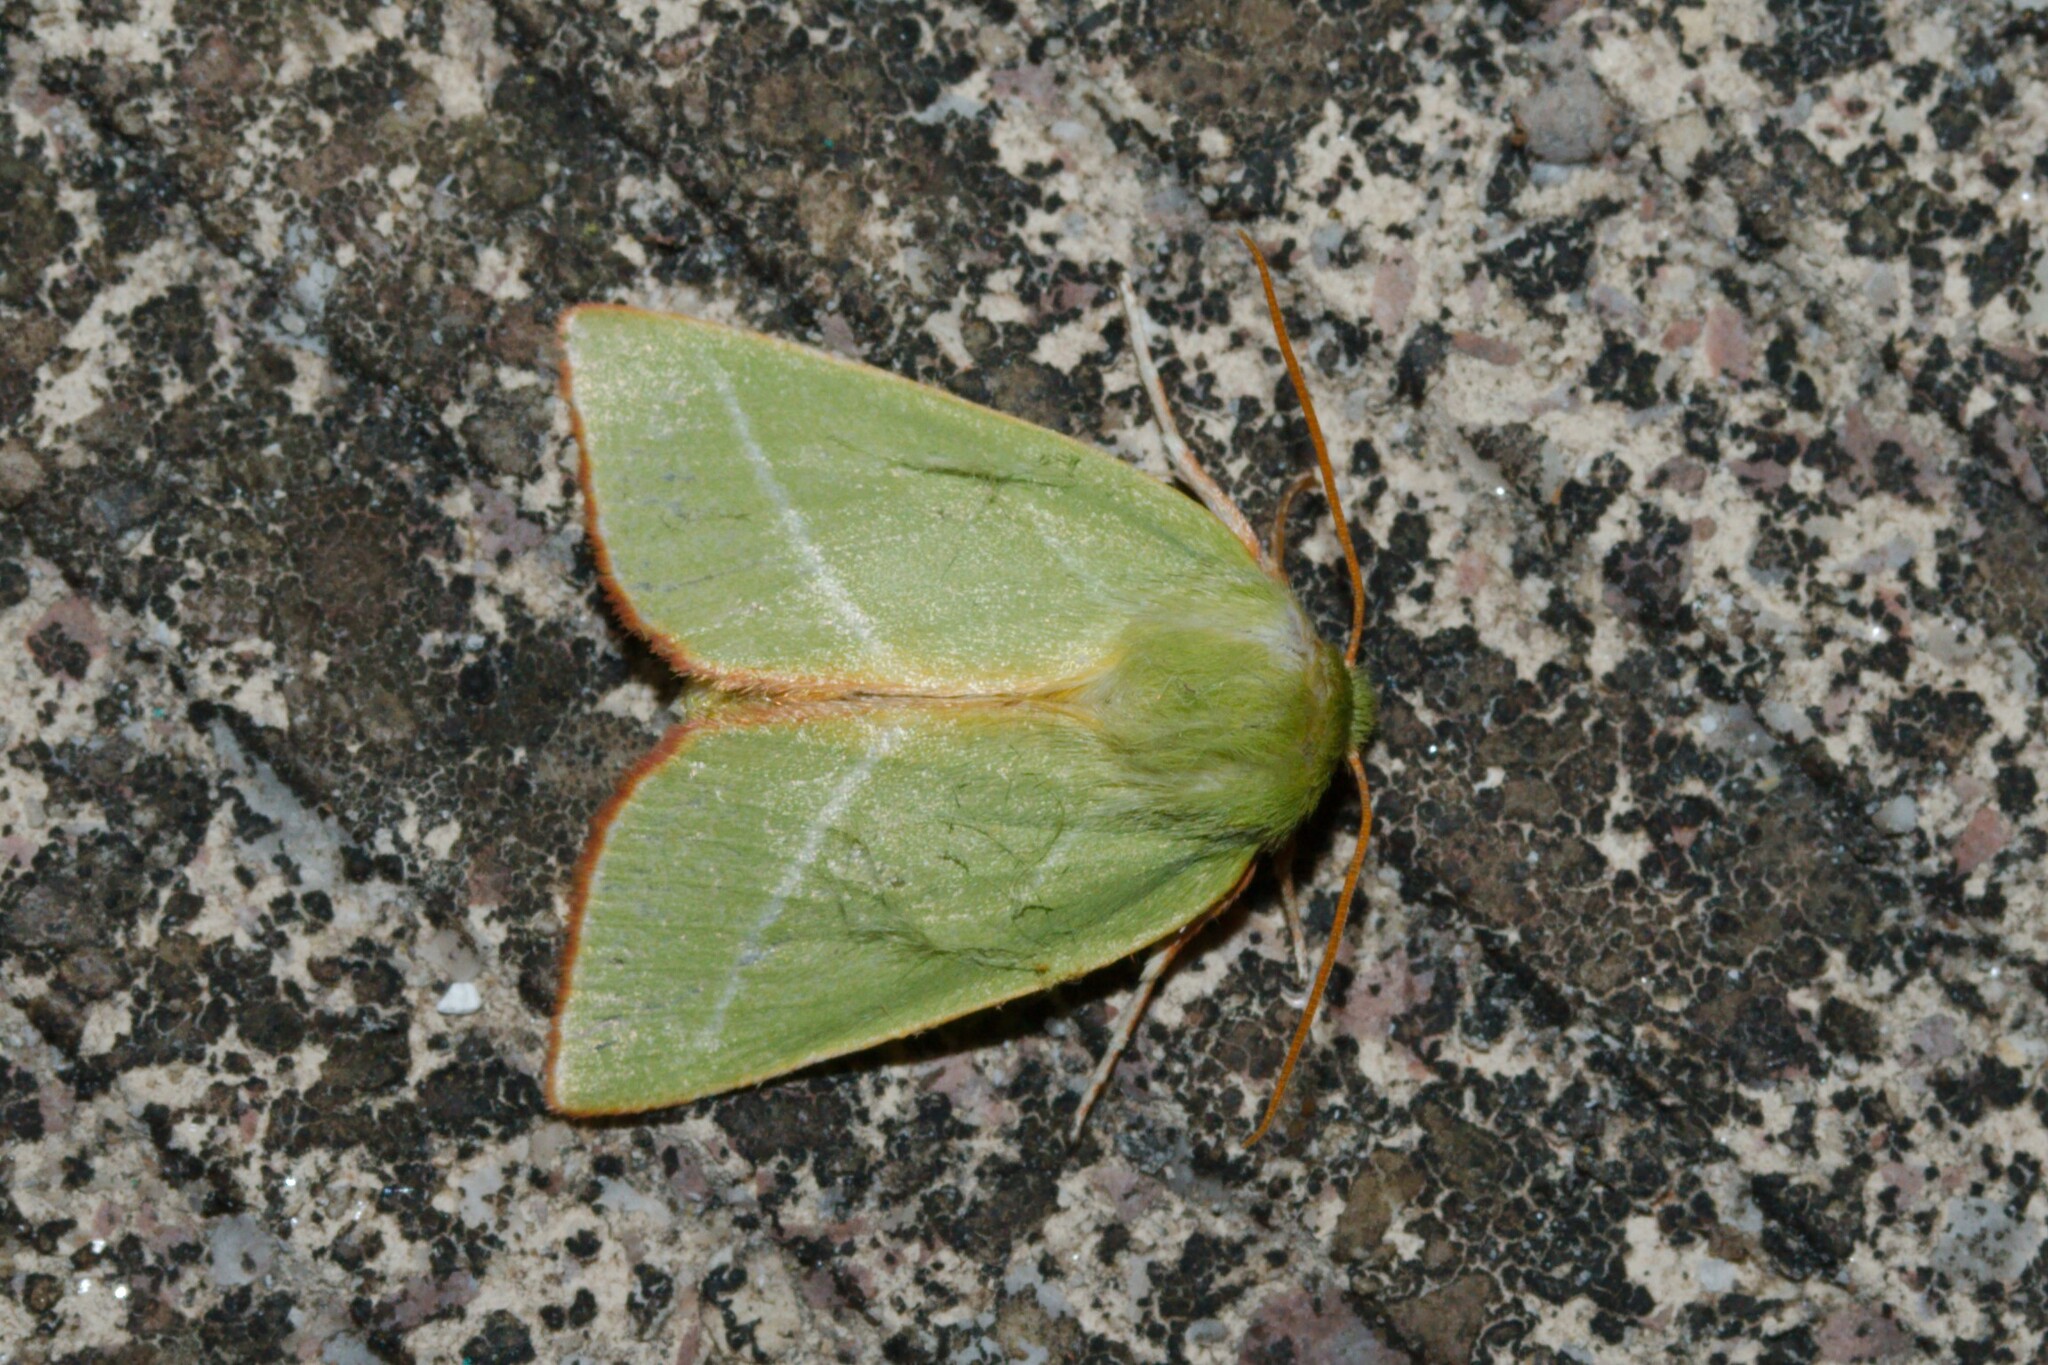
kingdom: Animalia
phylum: Arthropoda
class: Insecta
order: Lepidoptera
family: Nolidae
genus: Pseudoips
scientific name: Pseudoips prasinana
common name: Green silver-lines
